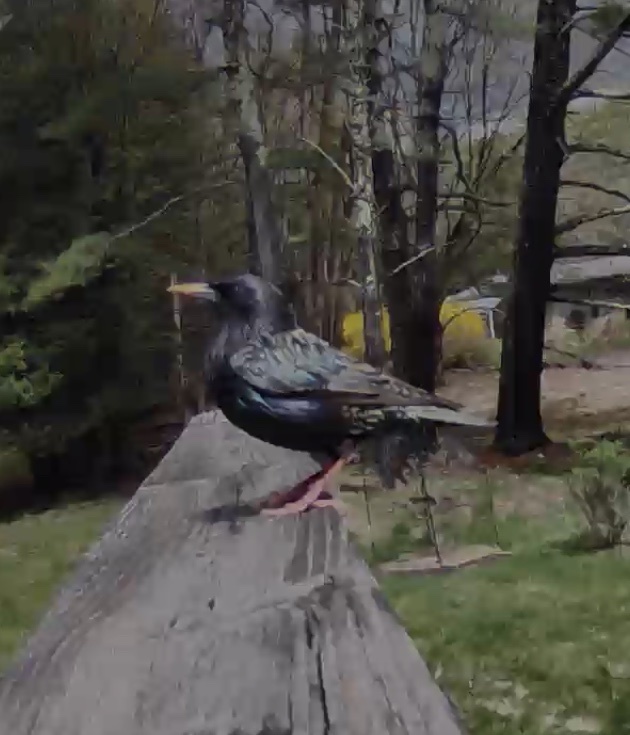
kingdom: Animalia
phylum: Chordata
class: Aves
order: Passeriformes
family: Sturnidae
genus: Sturnus
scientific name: Sturnus vulgaris
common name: Common starling
